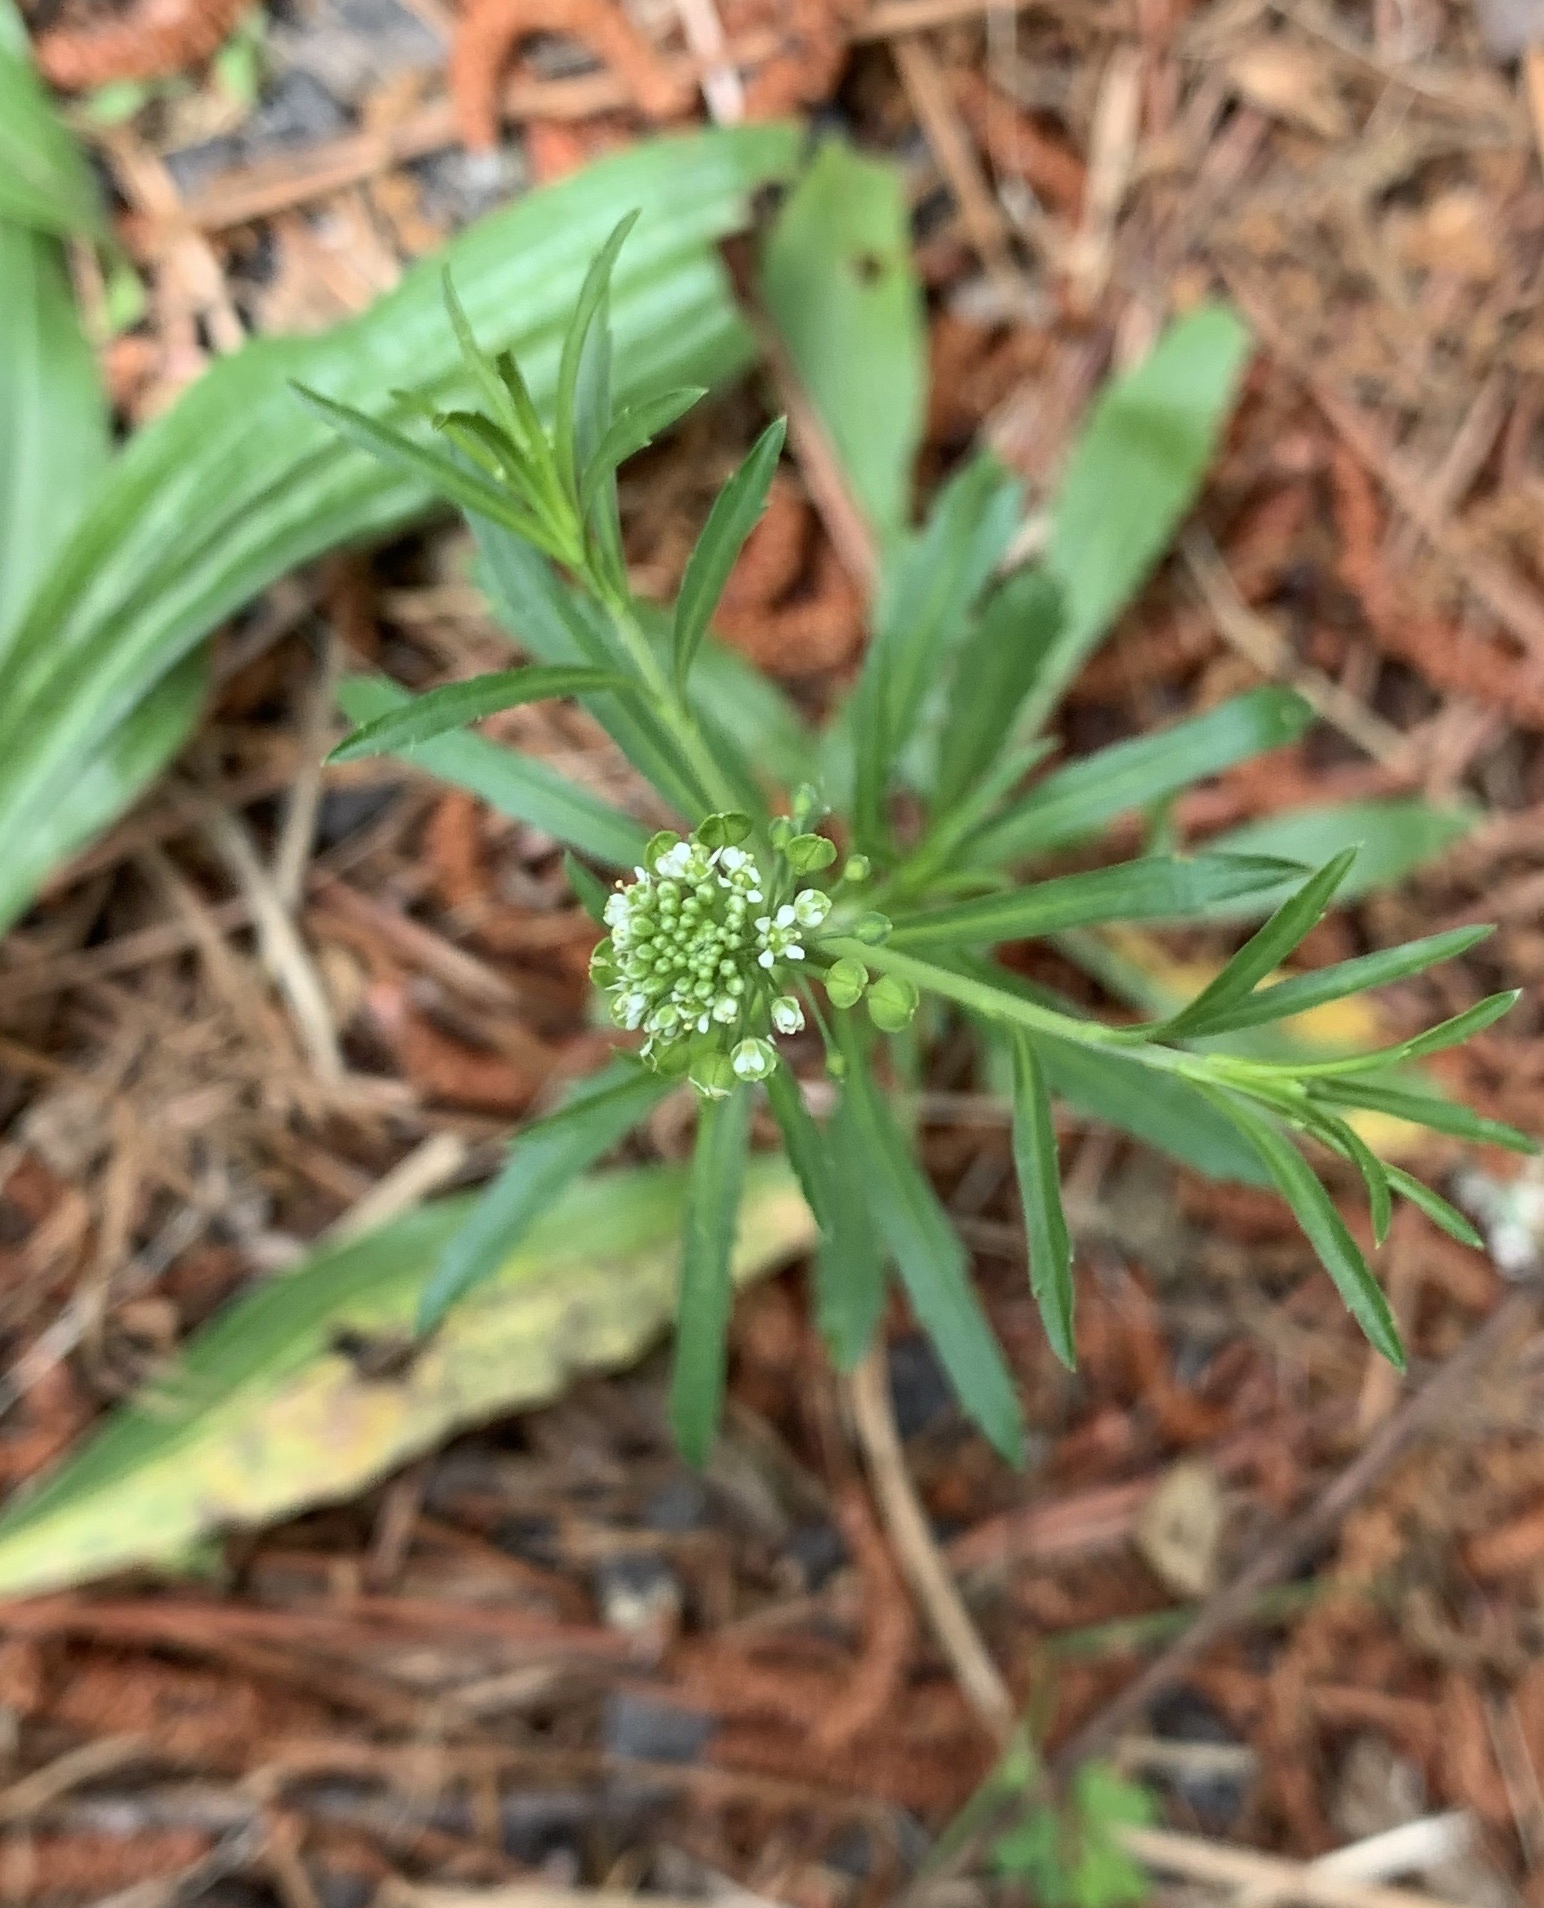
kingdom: Plantae
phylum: Tracheophyta
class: Magnoliopsida
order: Brassicales
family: Brassicaceae
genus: Lepidium
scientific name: Lepidium virginicum
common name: Least pepperwort
